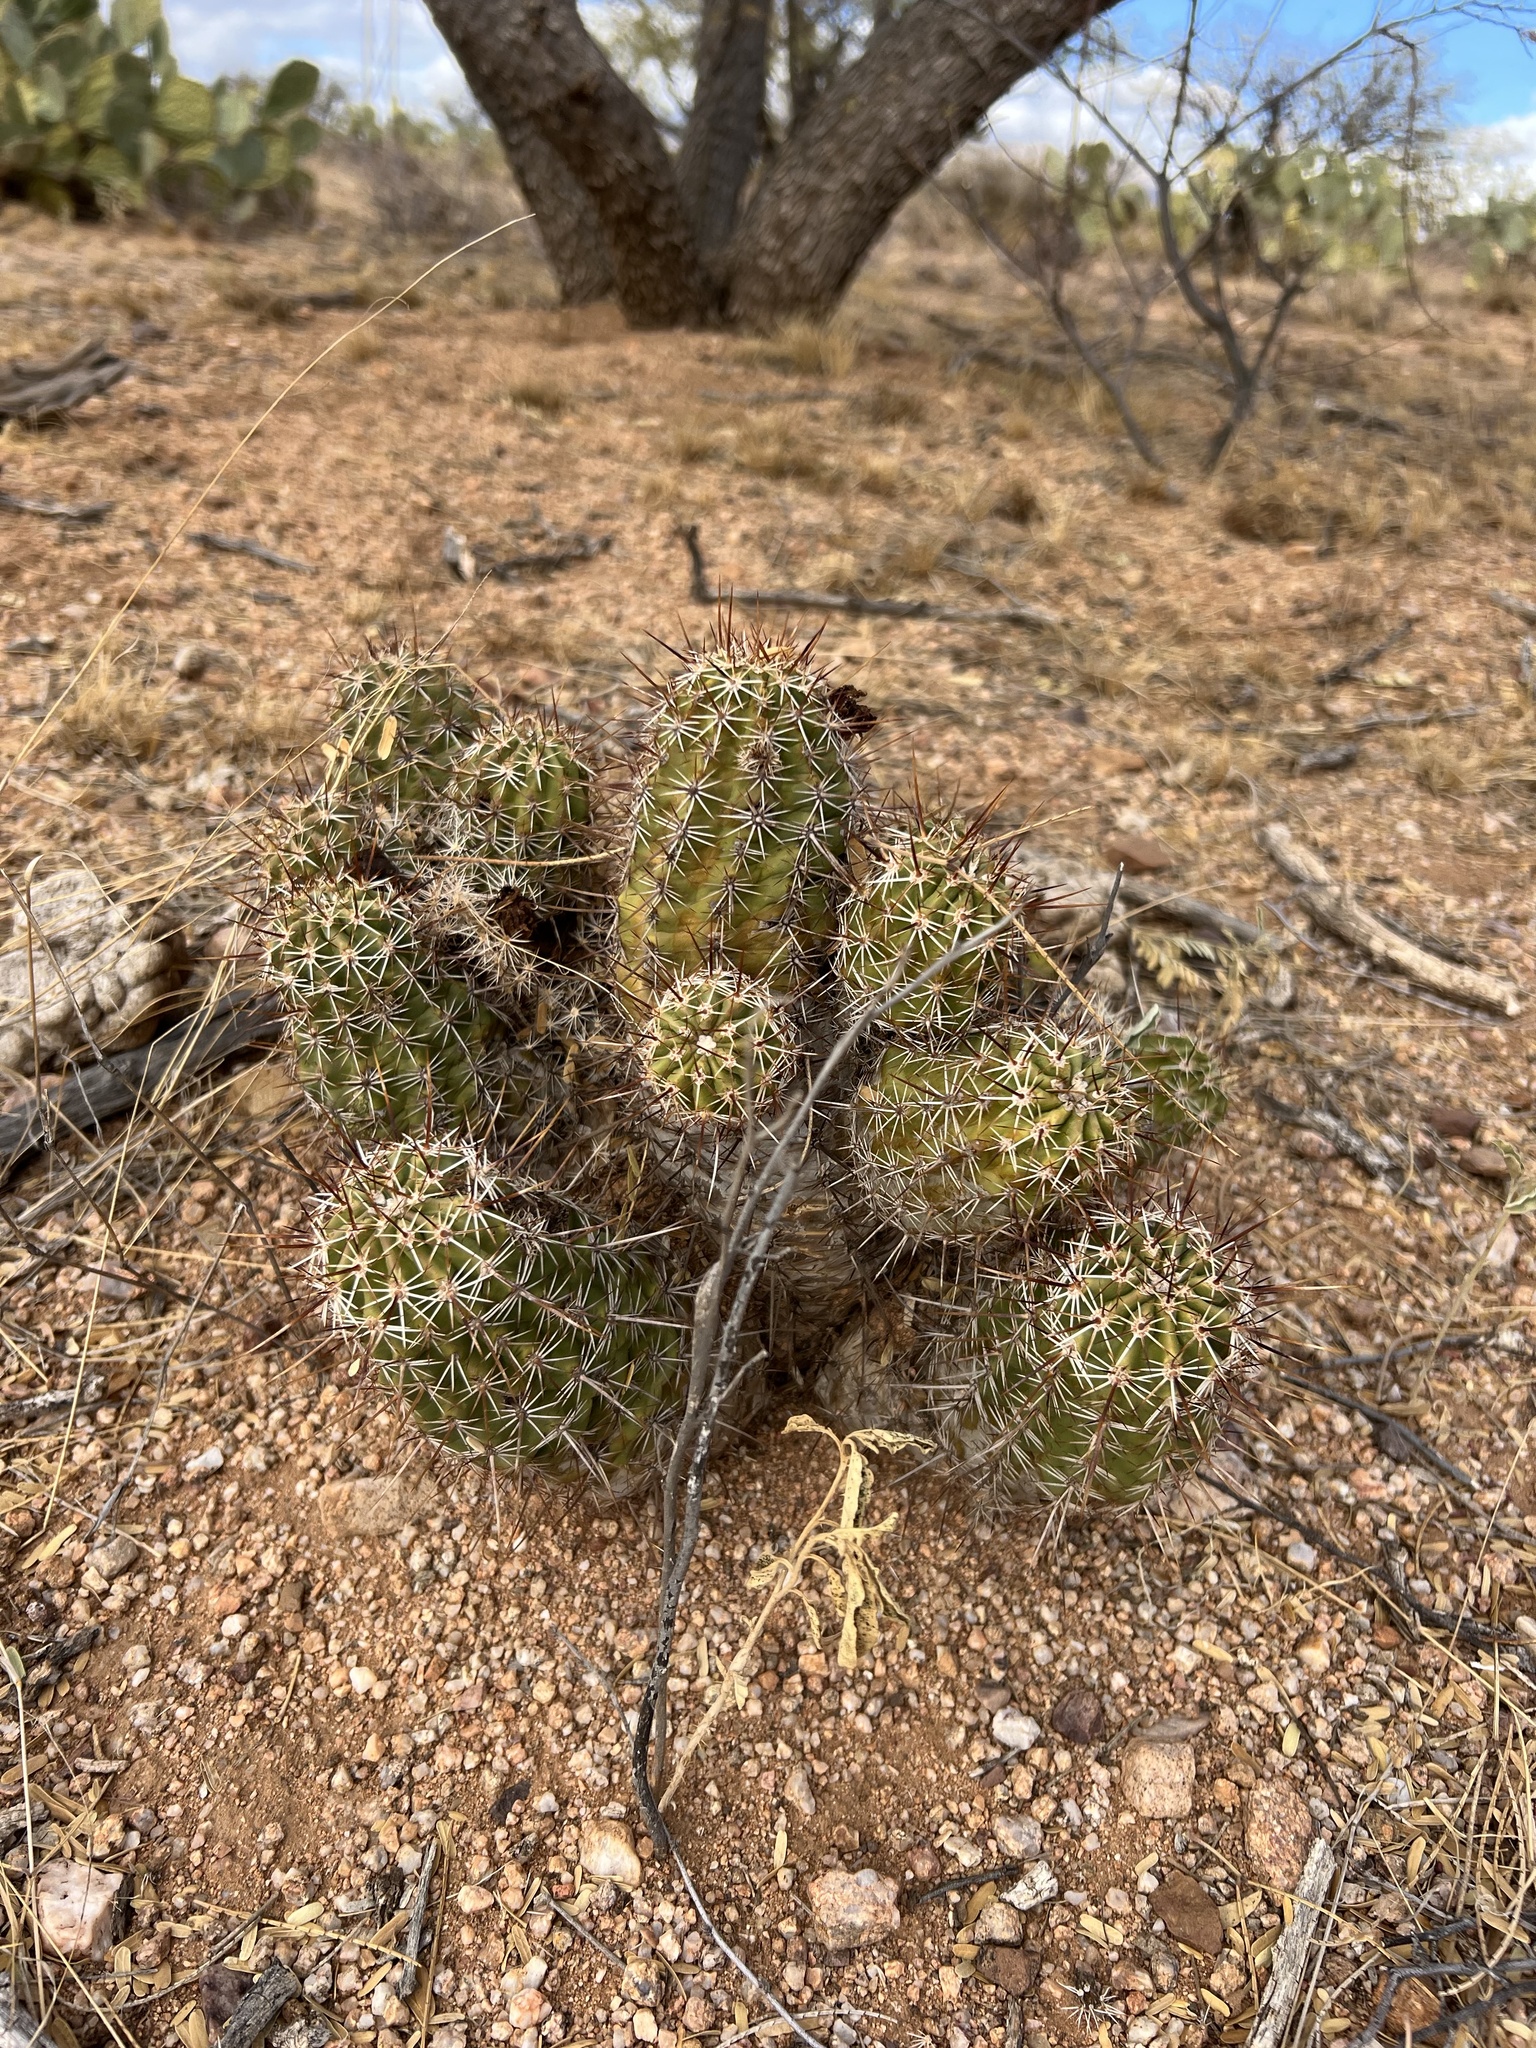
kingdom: Plantae
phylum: Tracheophyta
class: Magnoliopsida
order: Caryophyllales
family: Cactaceae
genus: Echinocereus
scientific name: Echinocereus fasciculatus
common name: Bundle hedgehog
